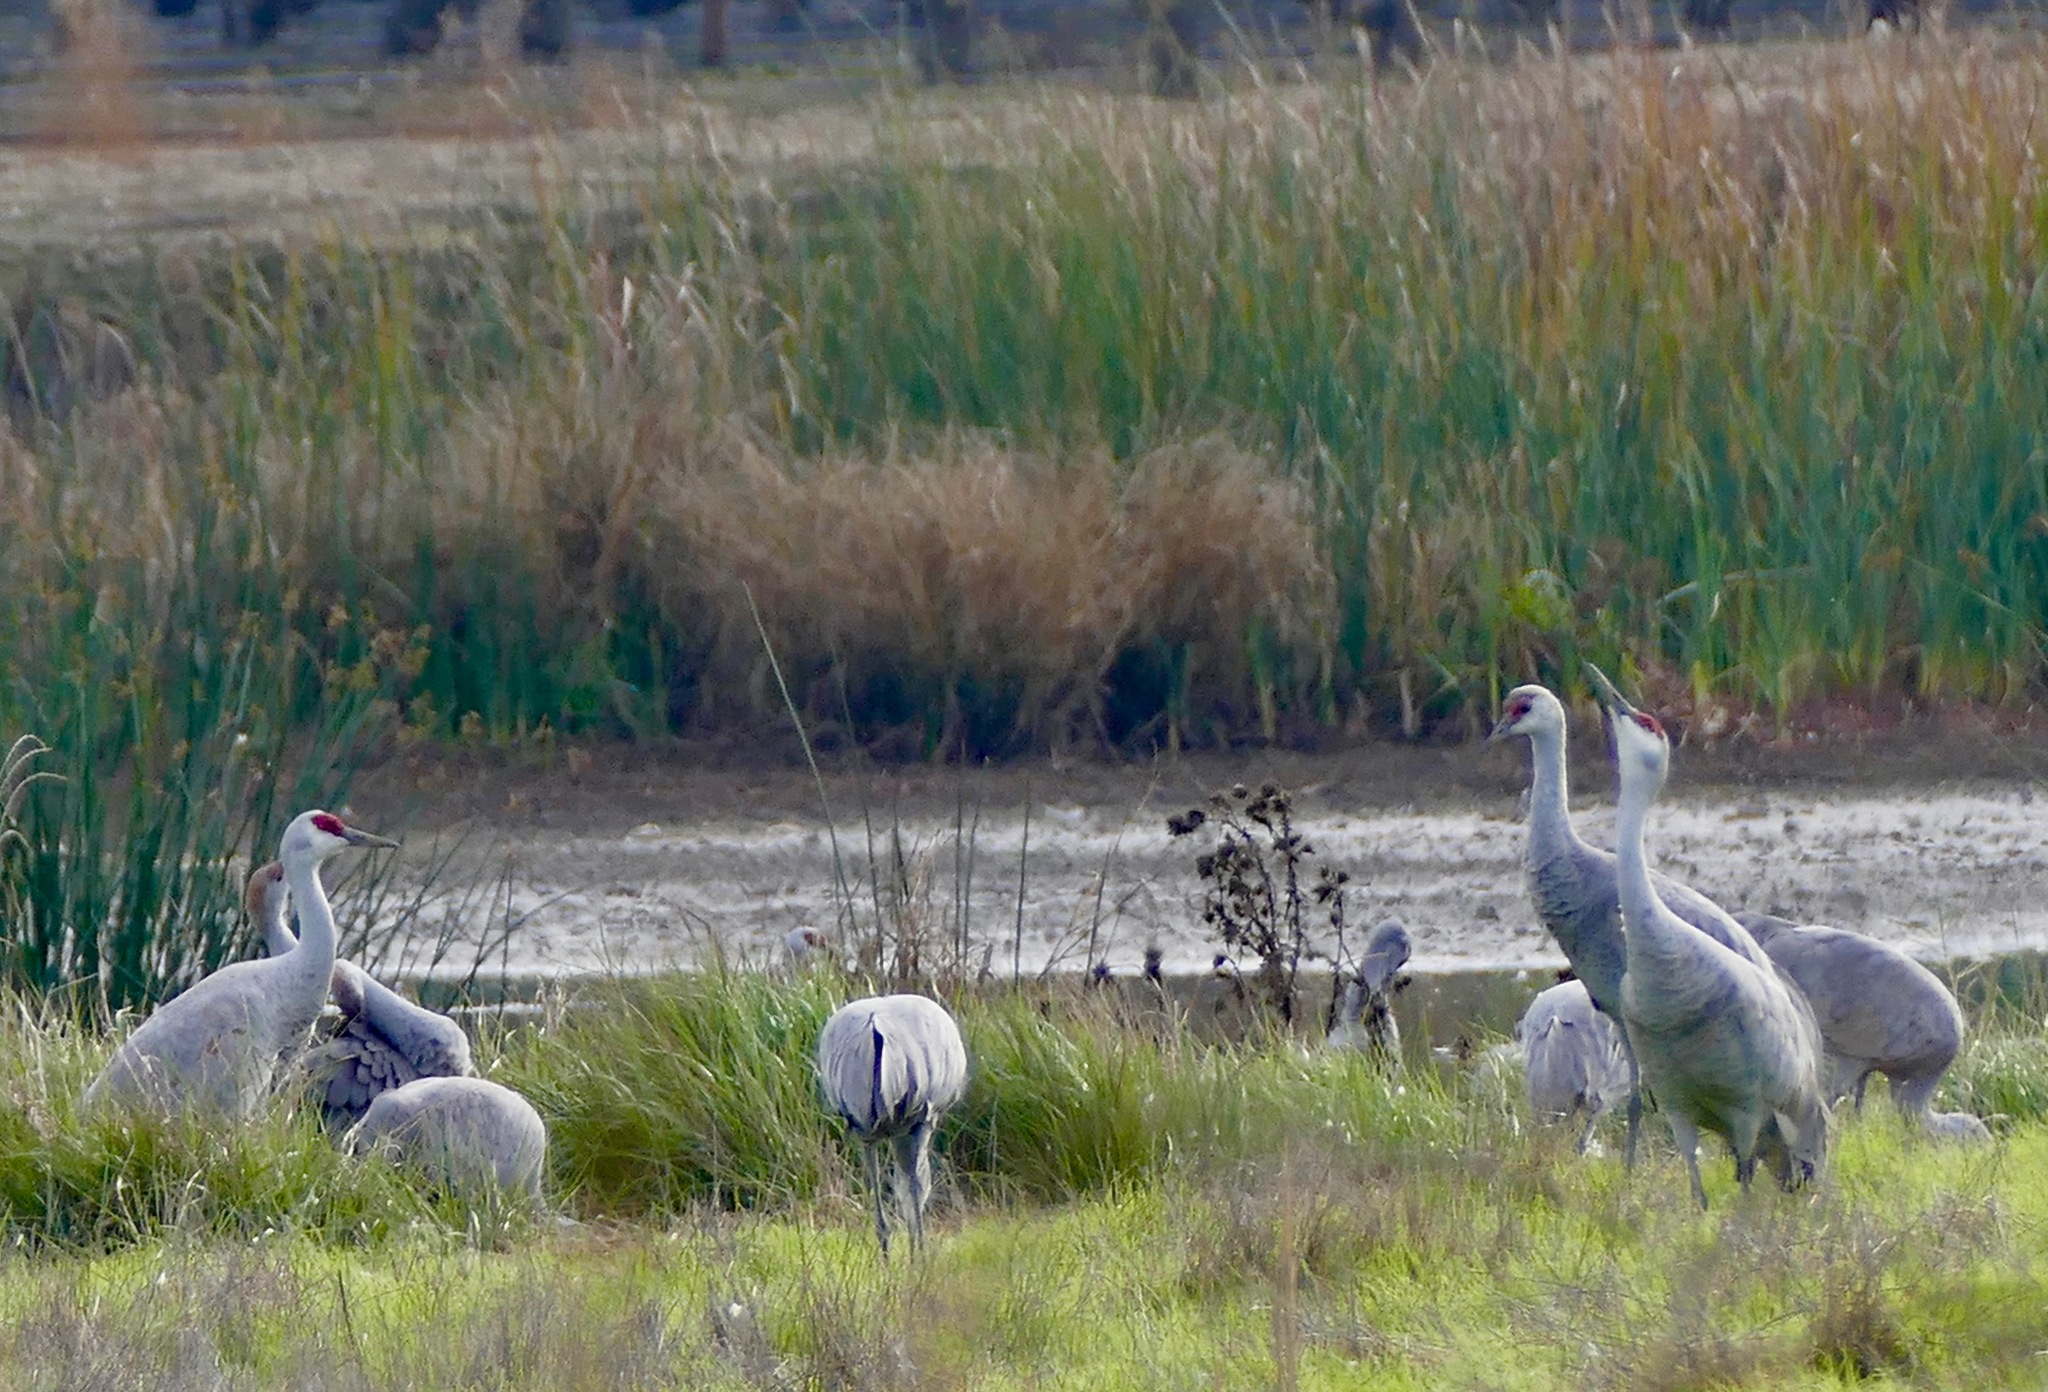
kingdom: Animalia
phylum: Chordata
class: Aves
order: Gruiformes
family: Gruidae
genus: Grus
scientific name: Grus canadensis
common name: Sandhill crane
